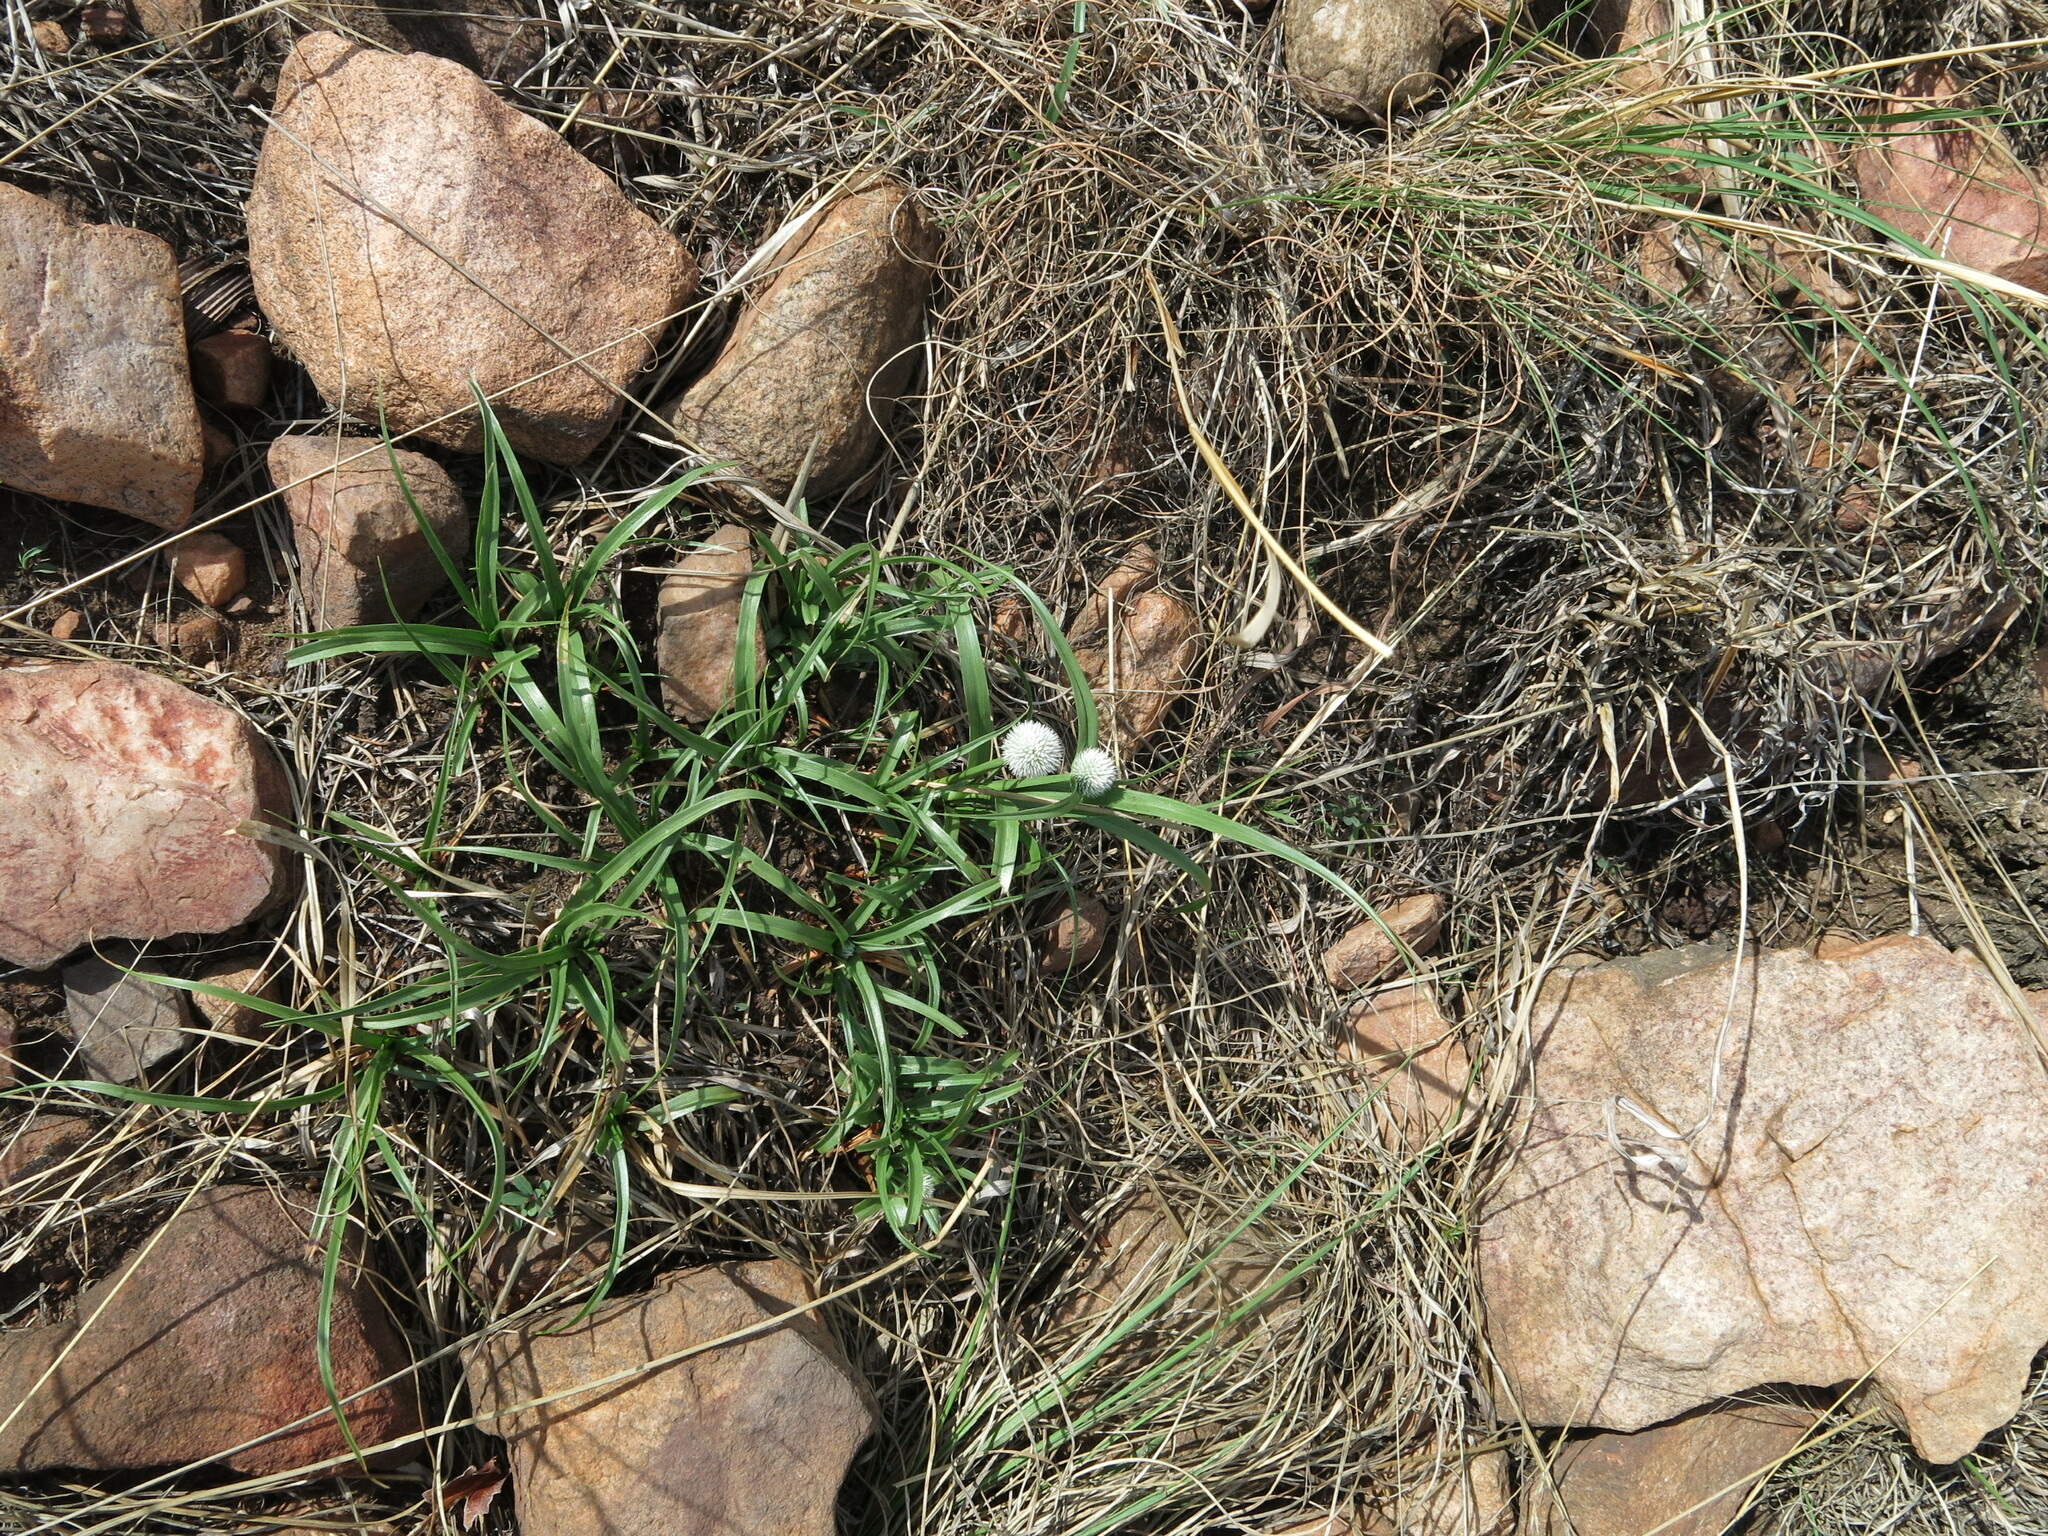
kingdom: Plantae
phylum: Tracheophyta
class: Liliopsida
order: Poales
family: Cyperaceae
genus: Cyperus
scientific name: Cyperus alatus
